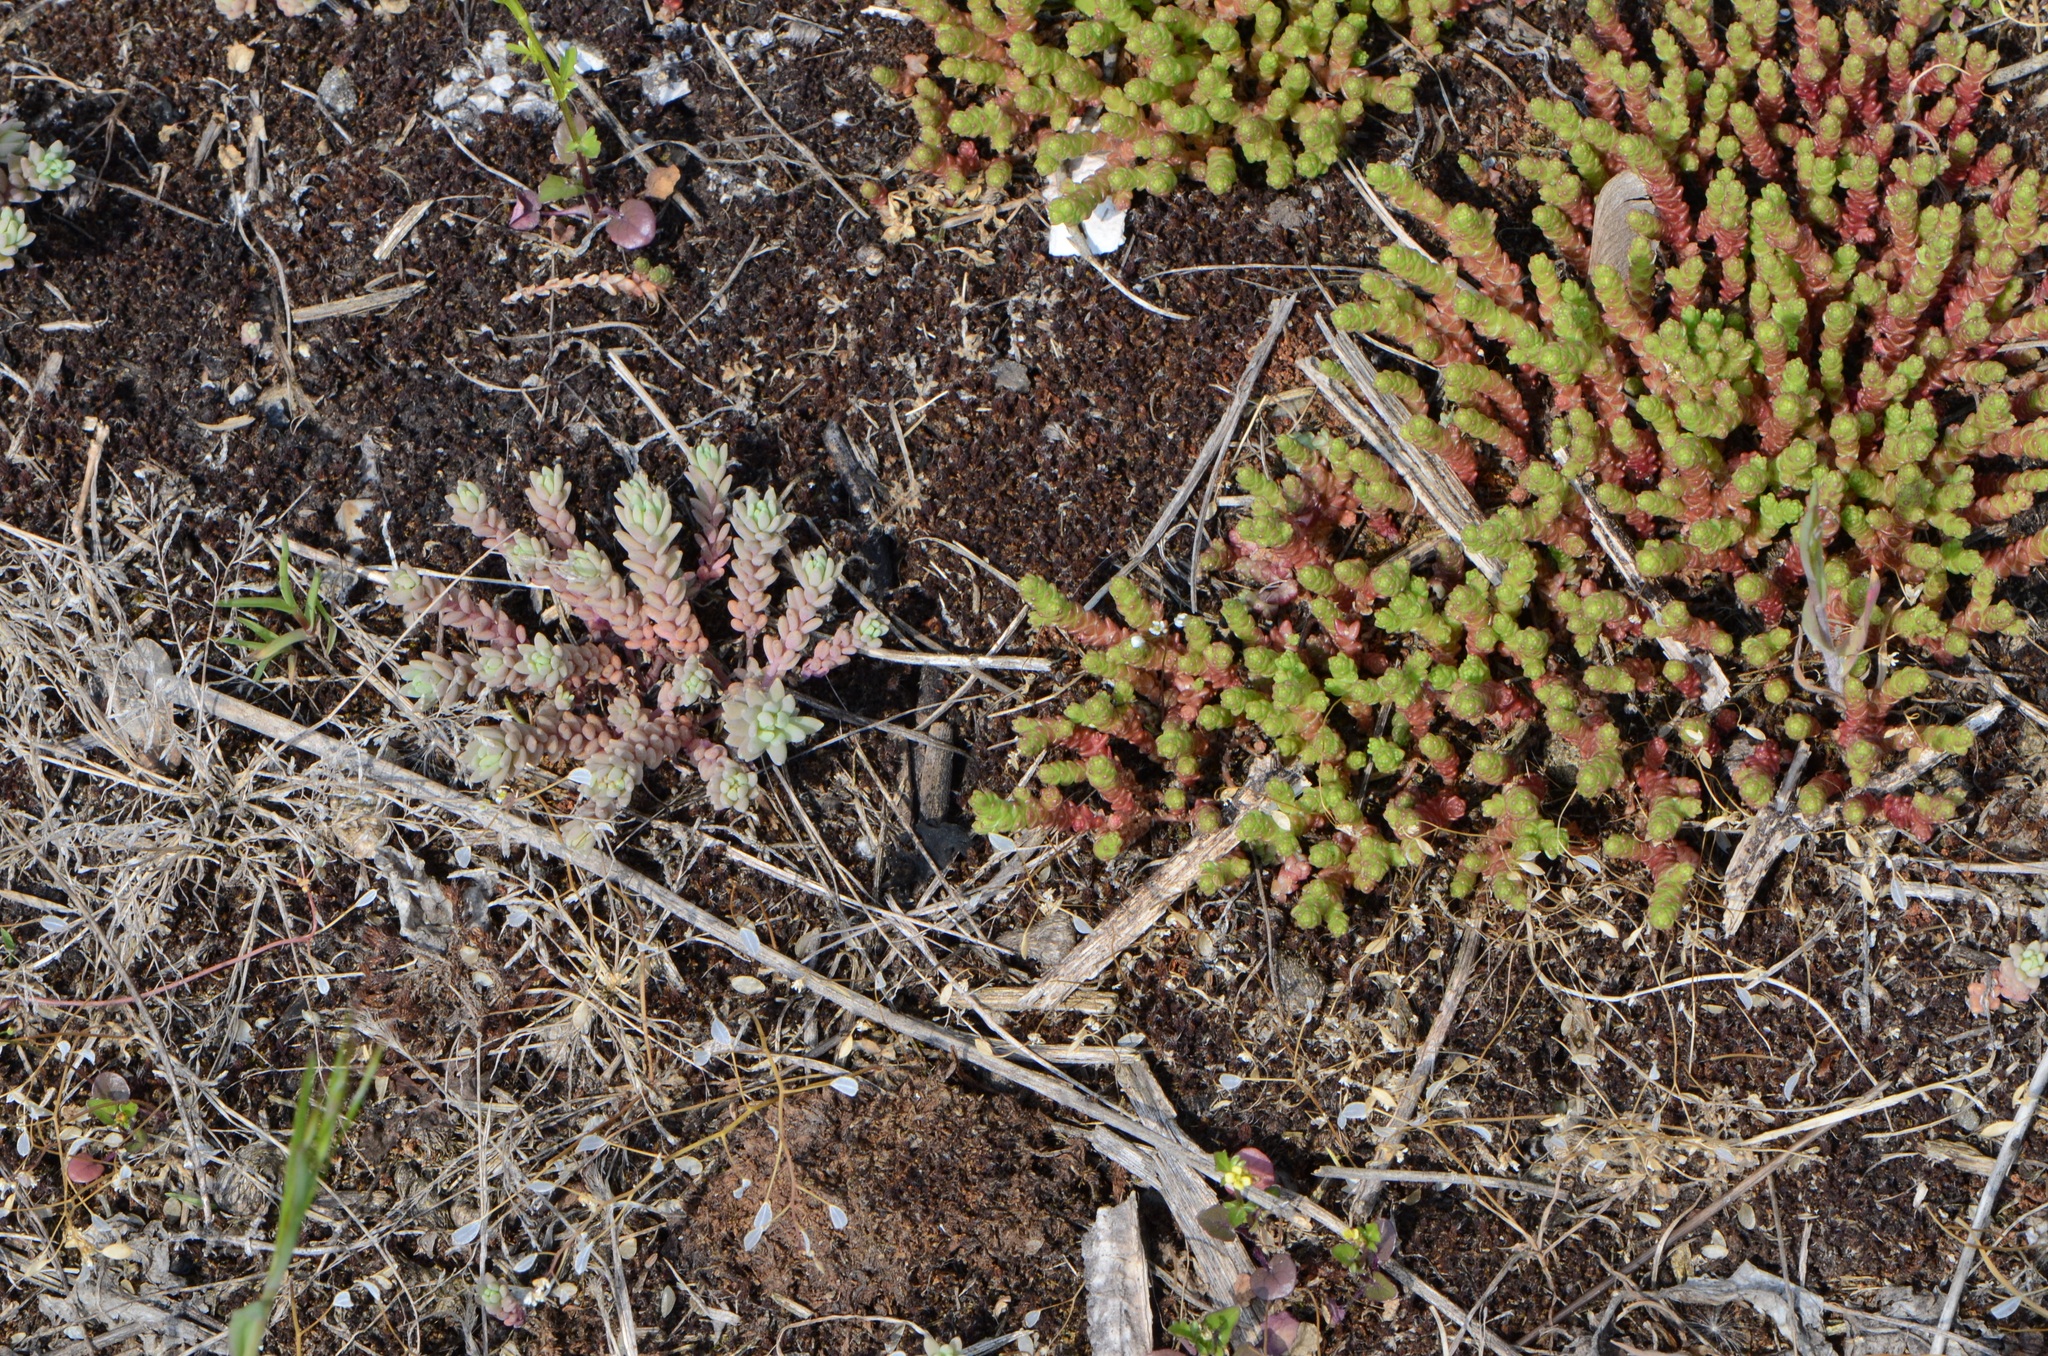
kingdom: Plantae
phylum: Tracheophyta
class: Magnoliopsida
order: Saxifragales
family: Crassulaceae
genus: Sedum
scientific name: Sedum acre
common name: Biting stonecrop
